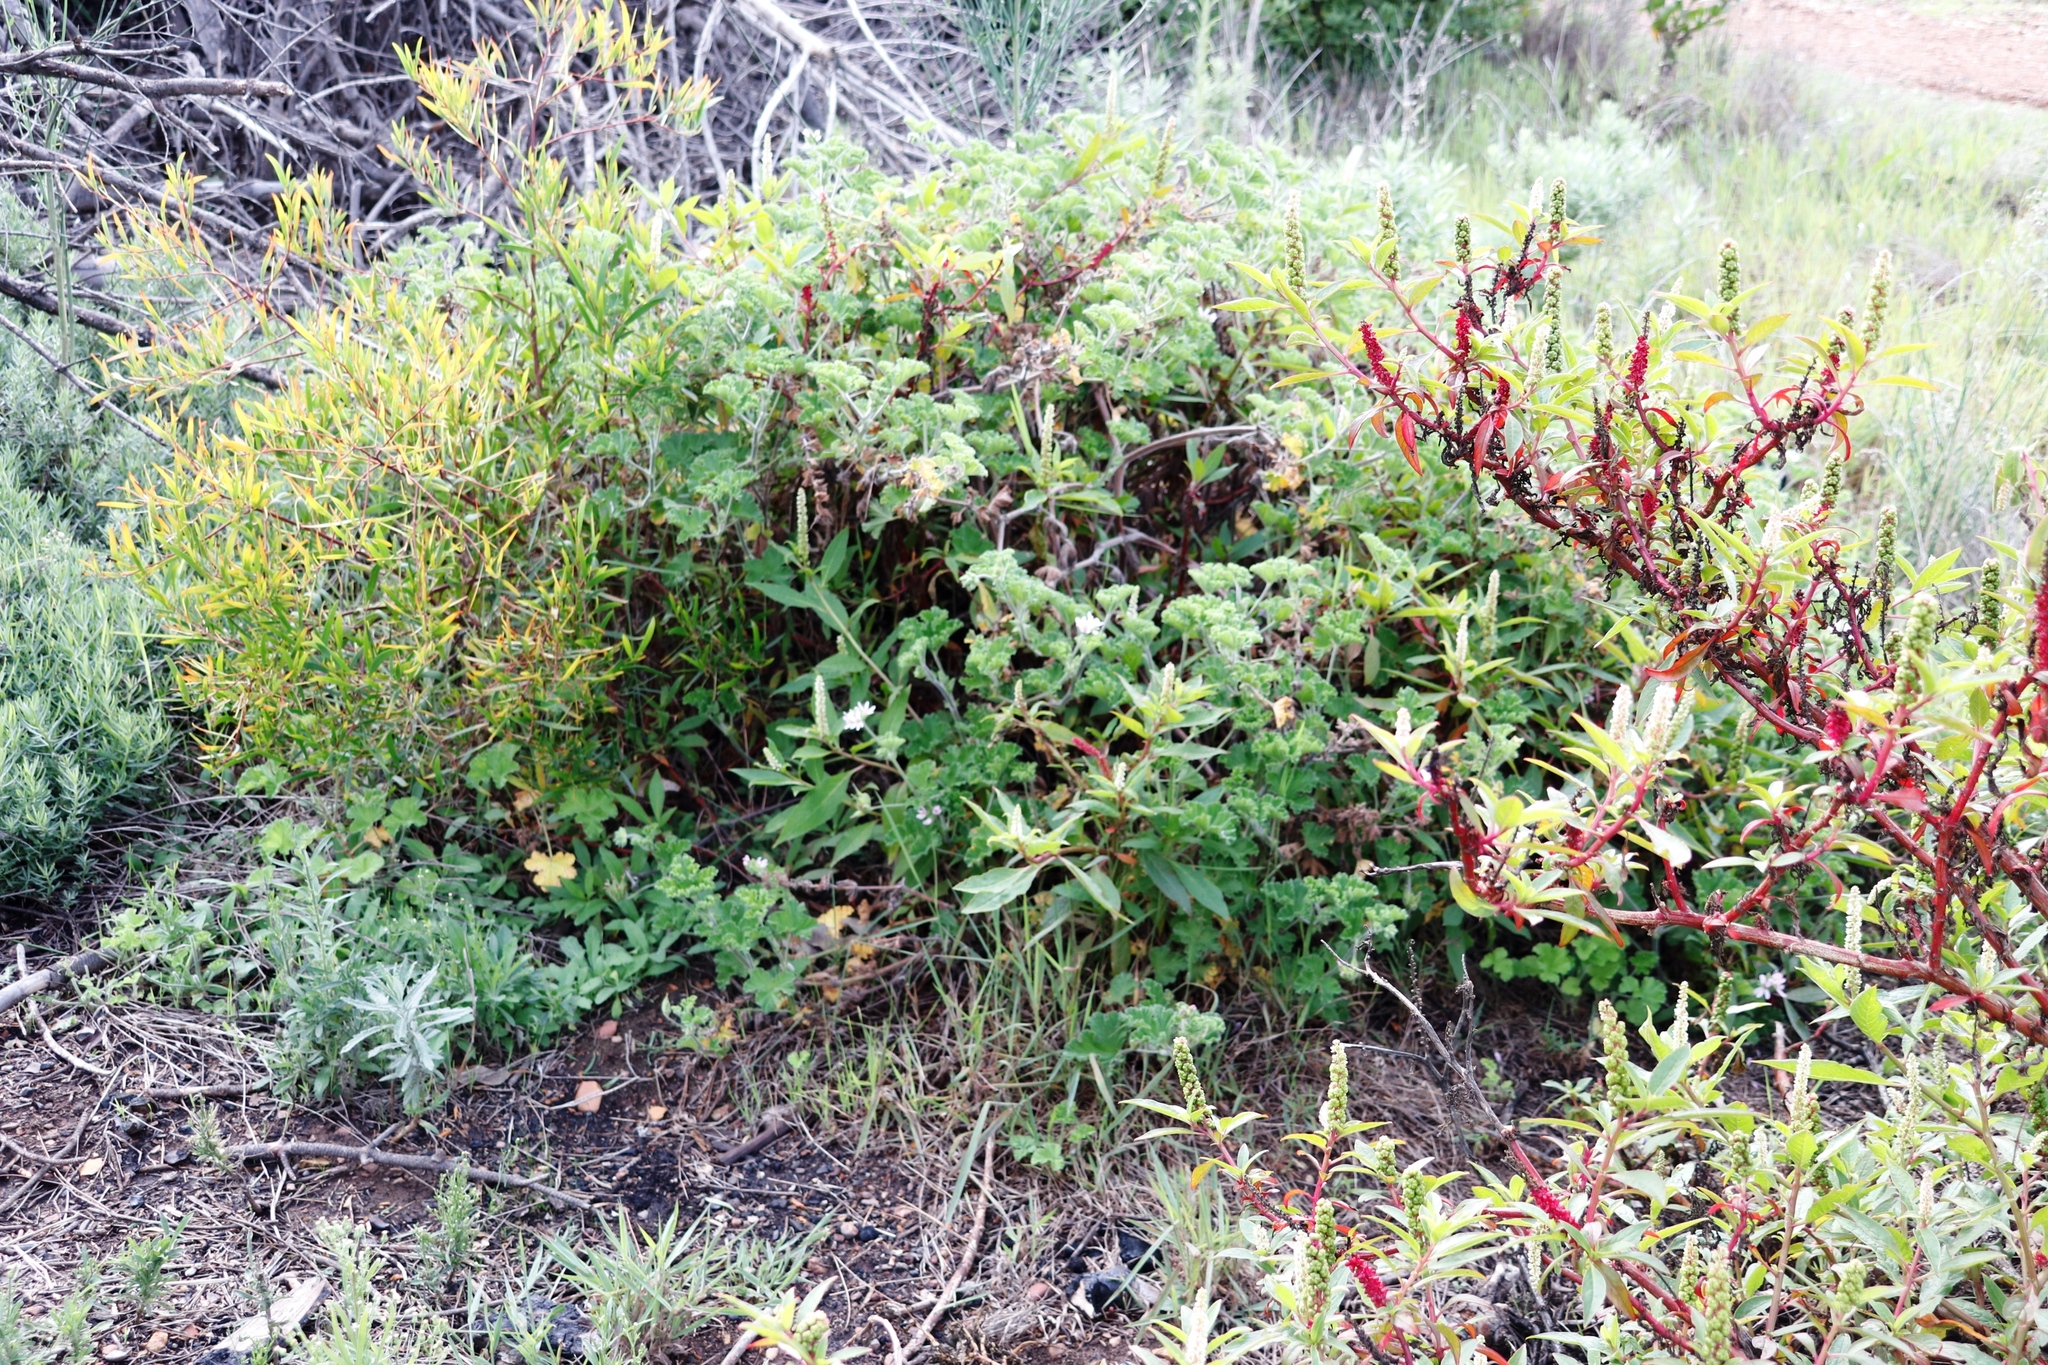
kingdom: Plantae
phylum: Tracheophyta
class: Magnoliopsida
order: Caryophyllales
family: Phytolaccaceae
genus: Phytolacca
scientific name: Phytolacca icosandra
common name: Button pokeweed
